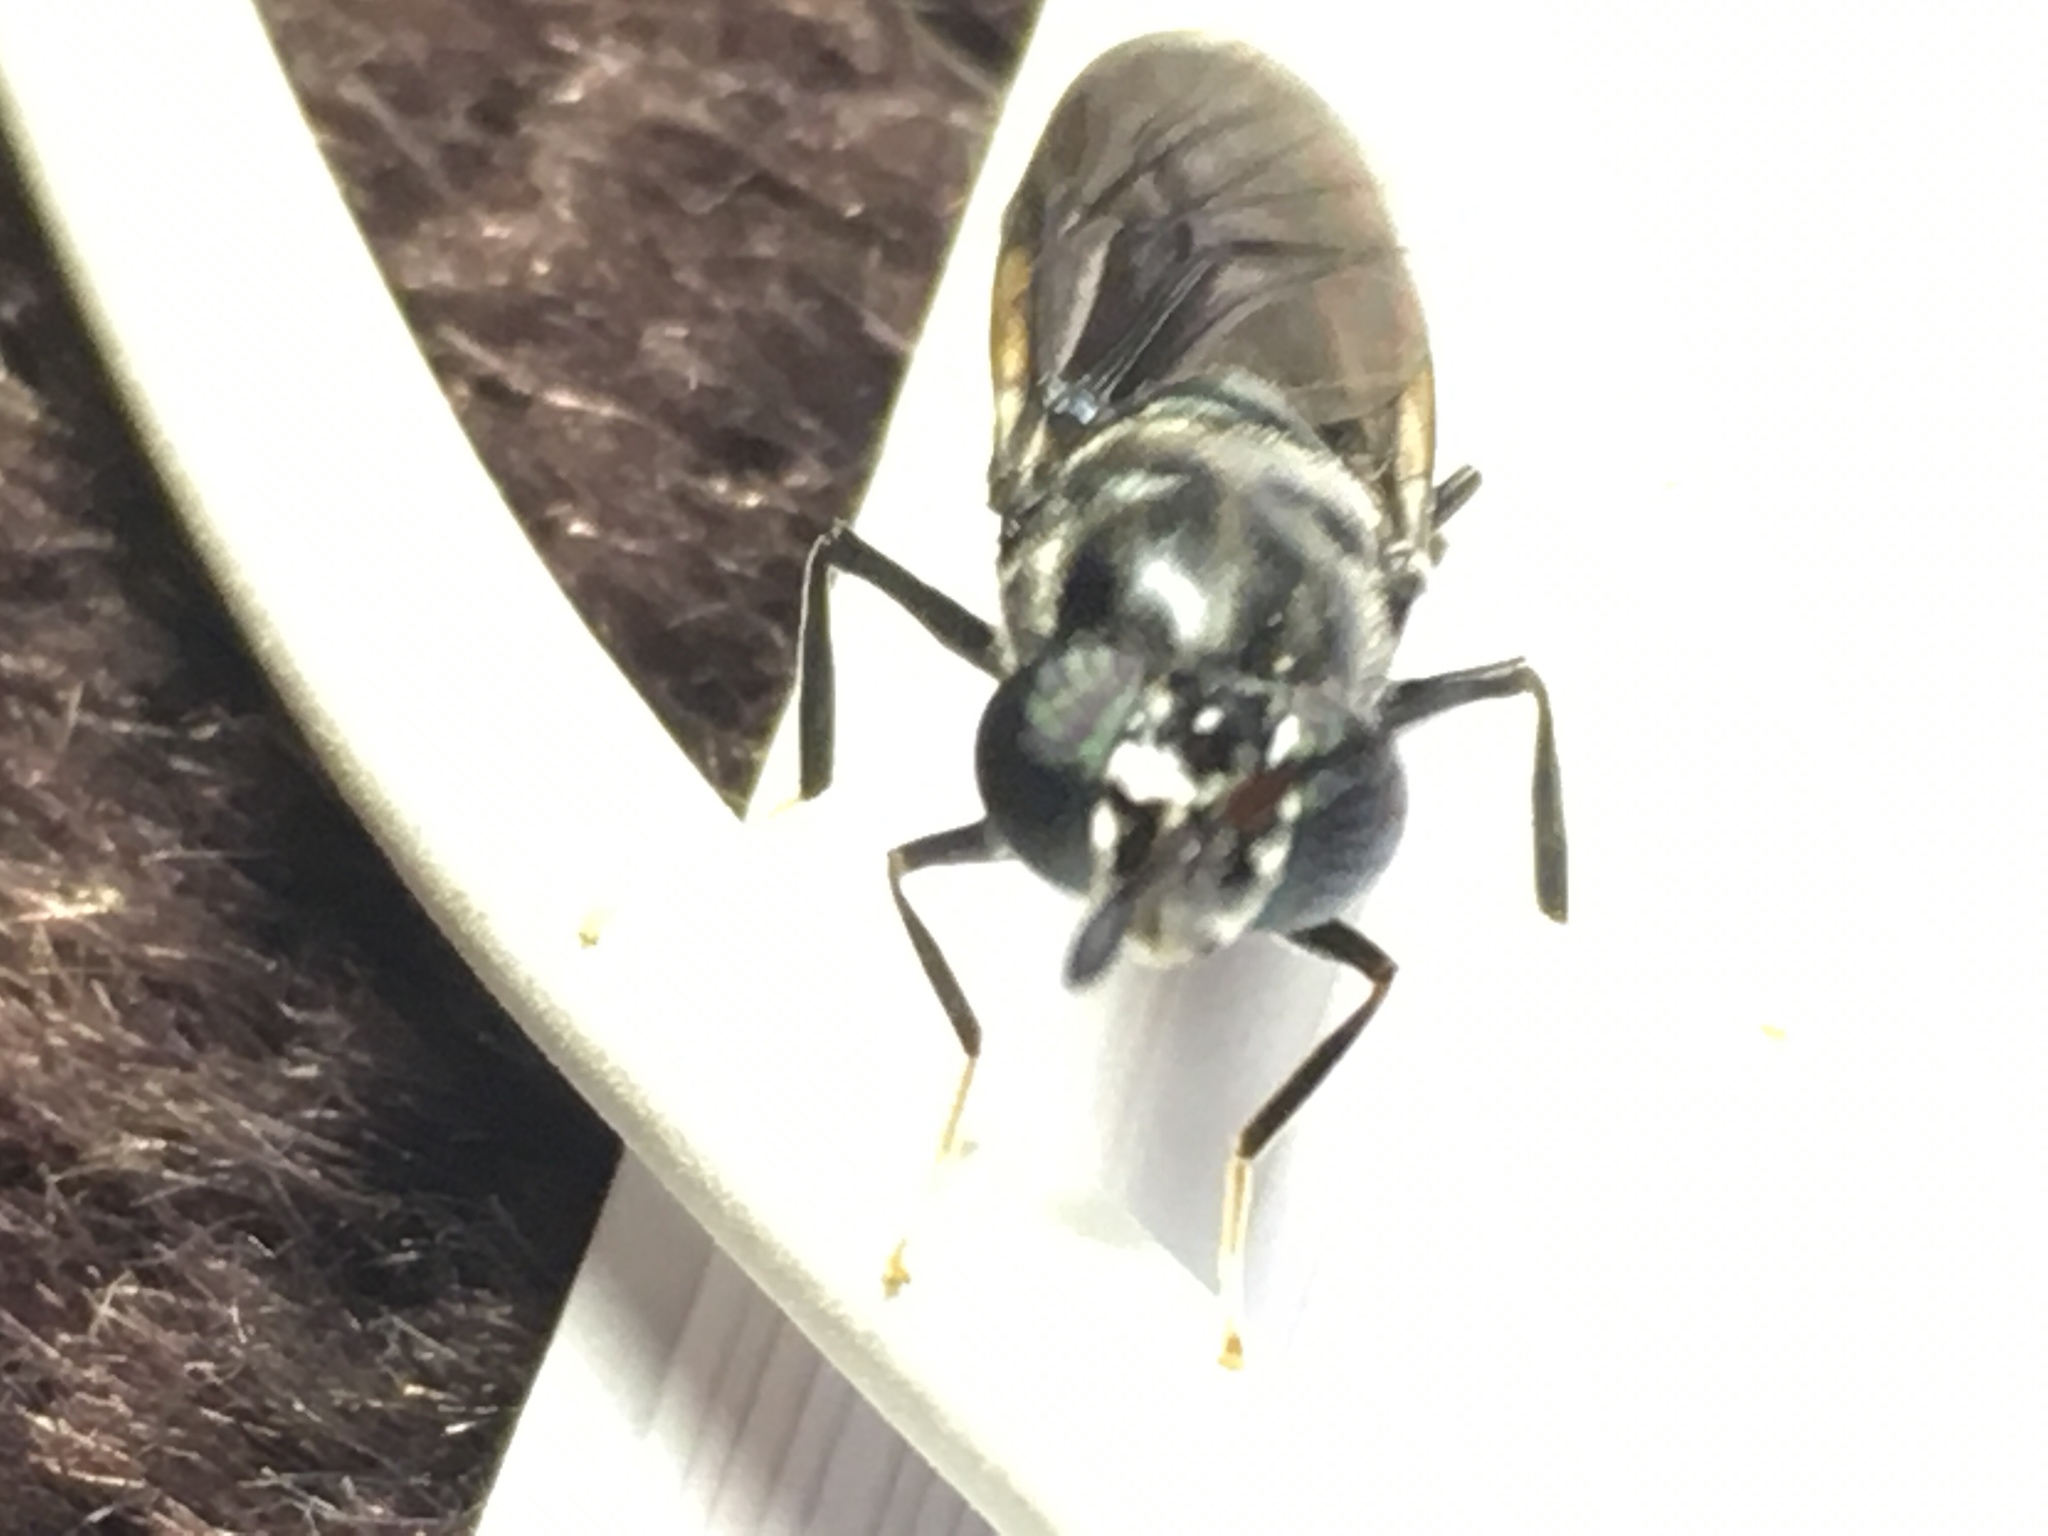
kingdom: Animalia
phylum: Arthropoda
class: Insecta
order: Diptera
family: Stratiomyidae
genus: Hermetia
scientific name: Hermetia illucens
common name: Black soldier fly
